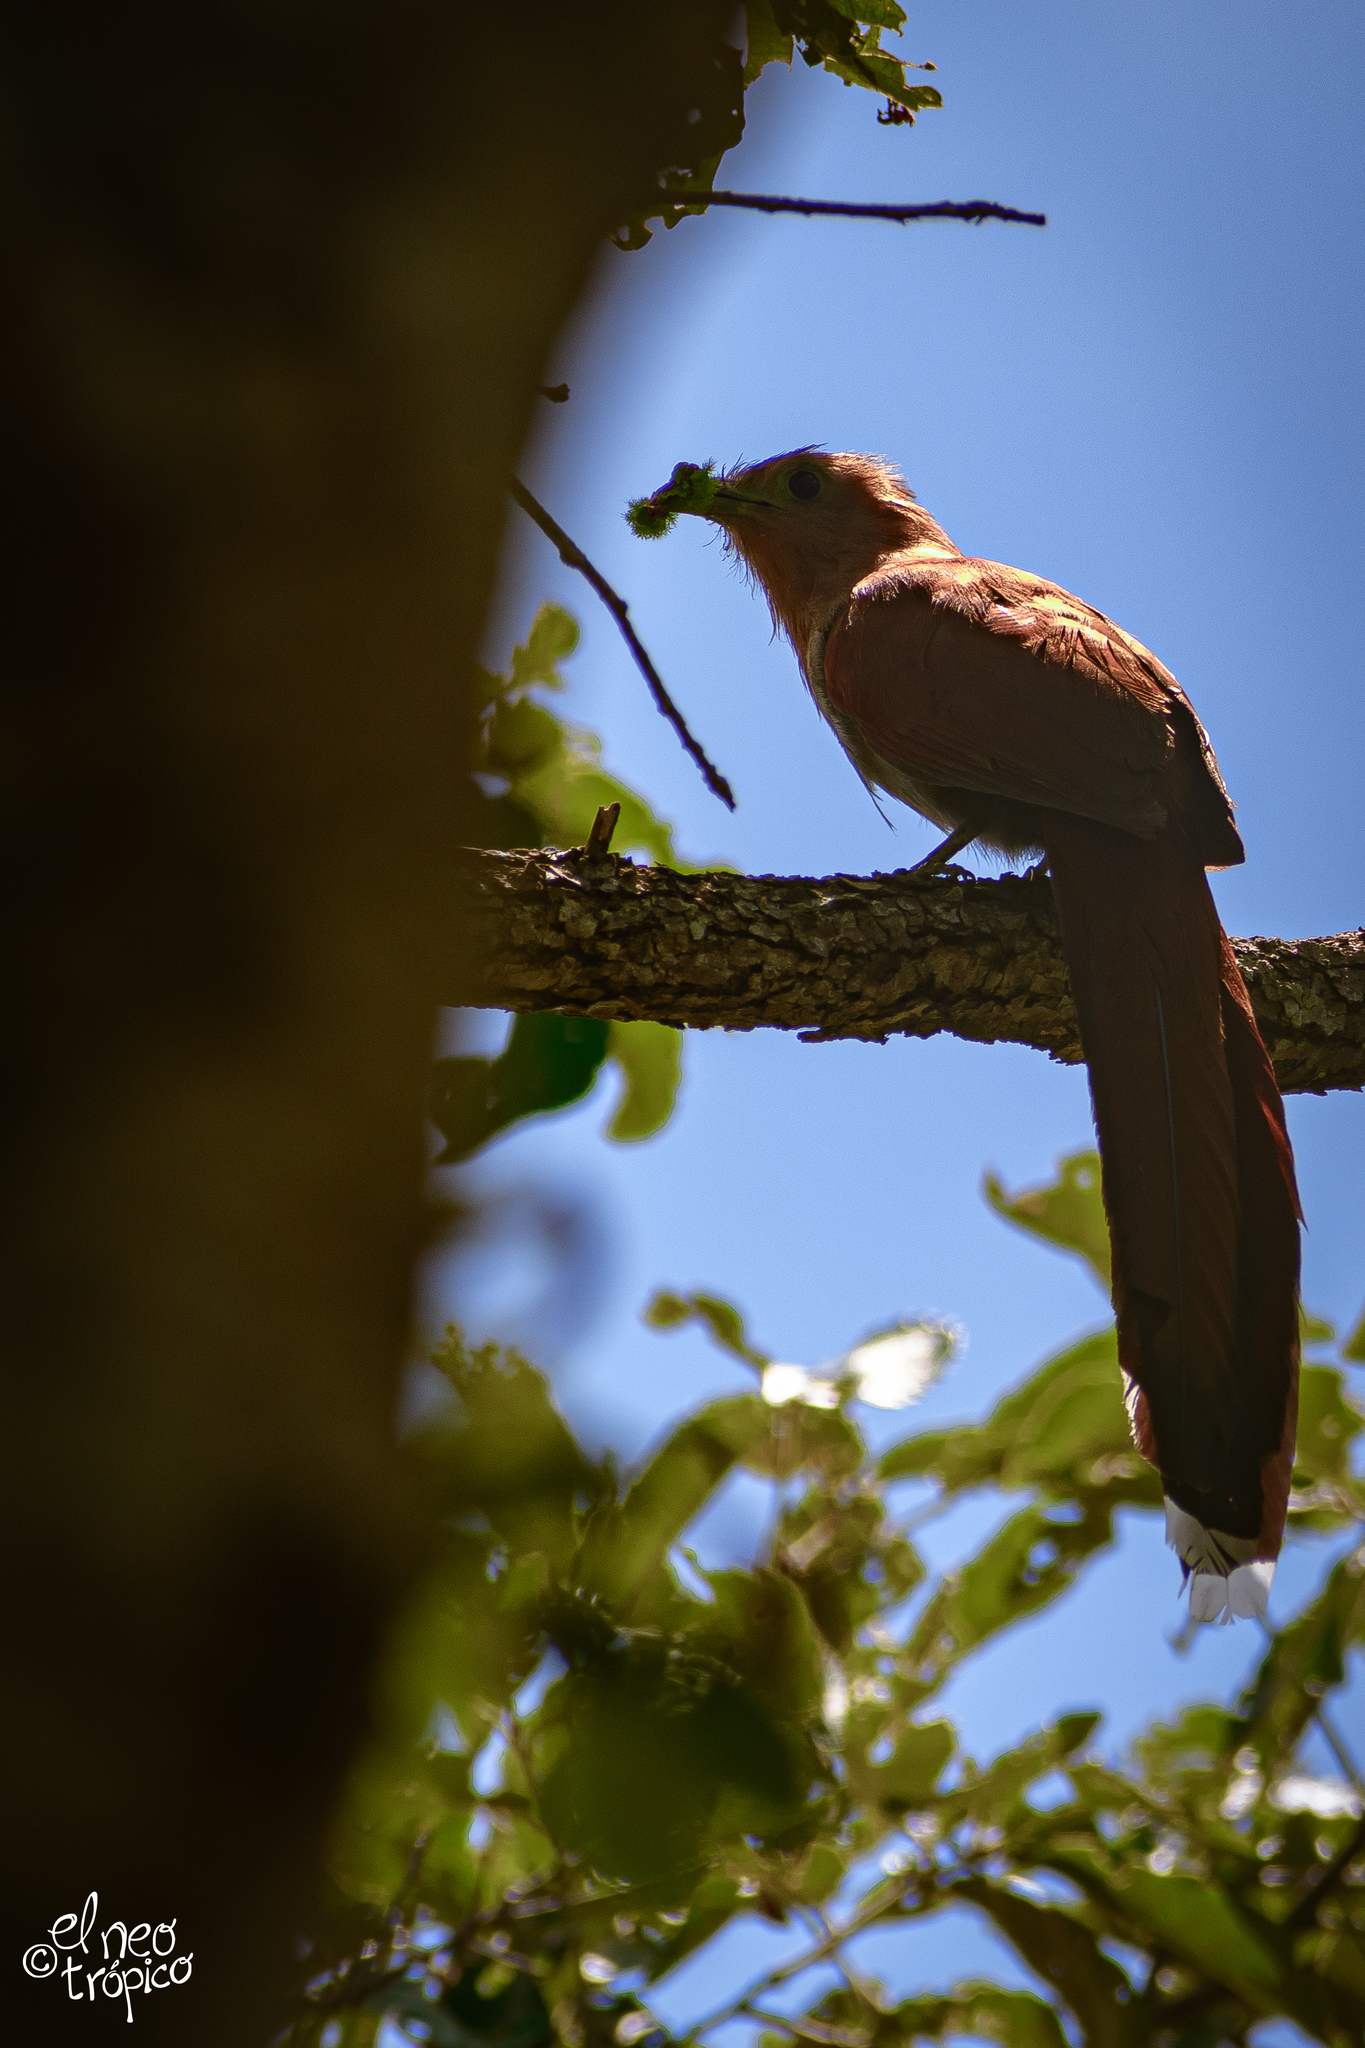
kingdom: Animalia
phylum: Chordata
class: Aves
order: Cuculiformes
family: Cuculidae
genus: Piaya
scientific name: Piaya cayana
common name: Squirrel cuckoo
